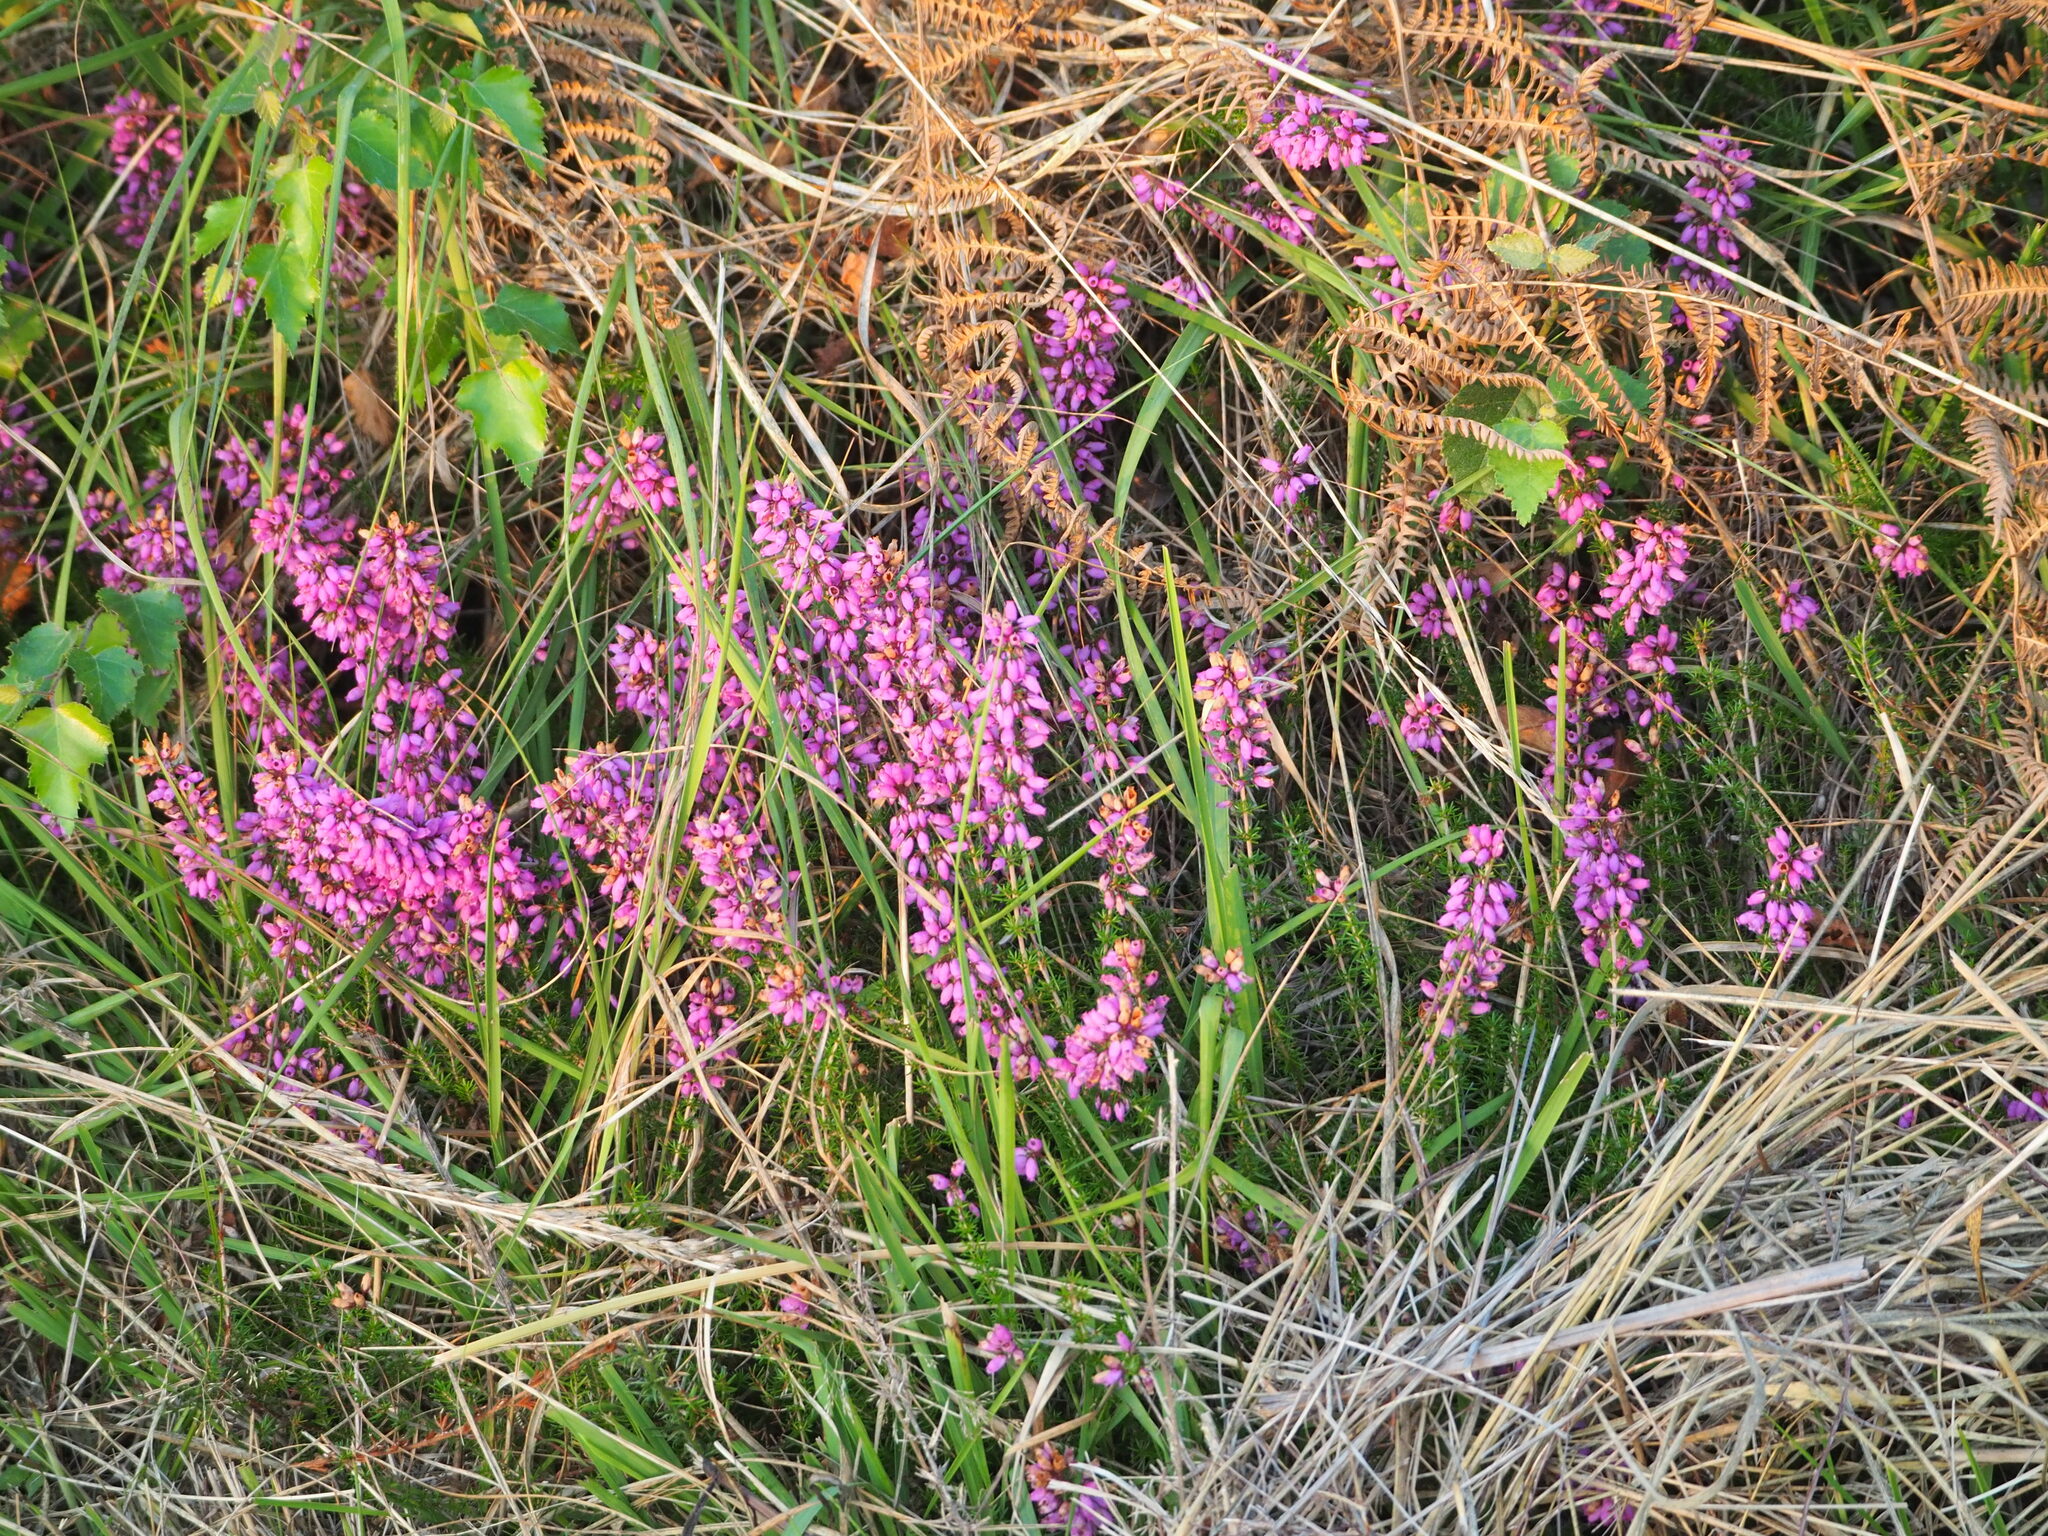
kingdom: Plantae
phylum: Tracheophyta
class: Magnoliopsida
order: Ericales
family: Ericaceae
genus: Erica
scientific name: Erica cinerea
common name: Bell heather
